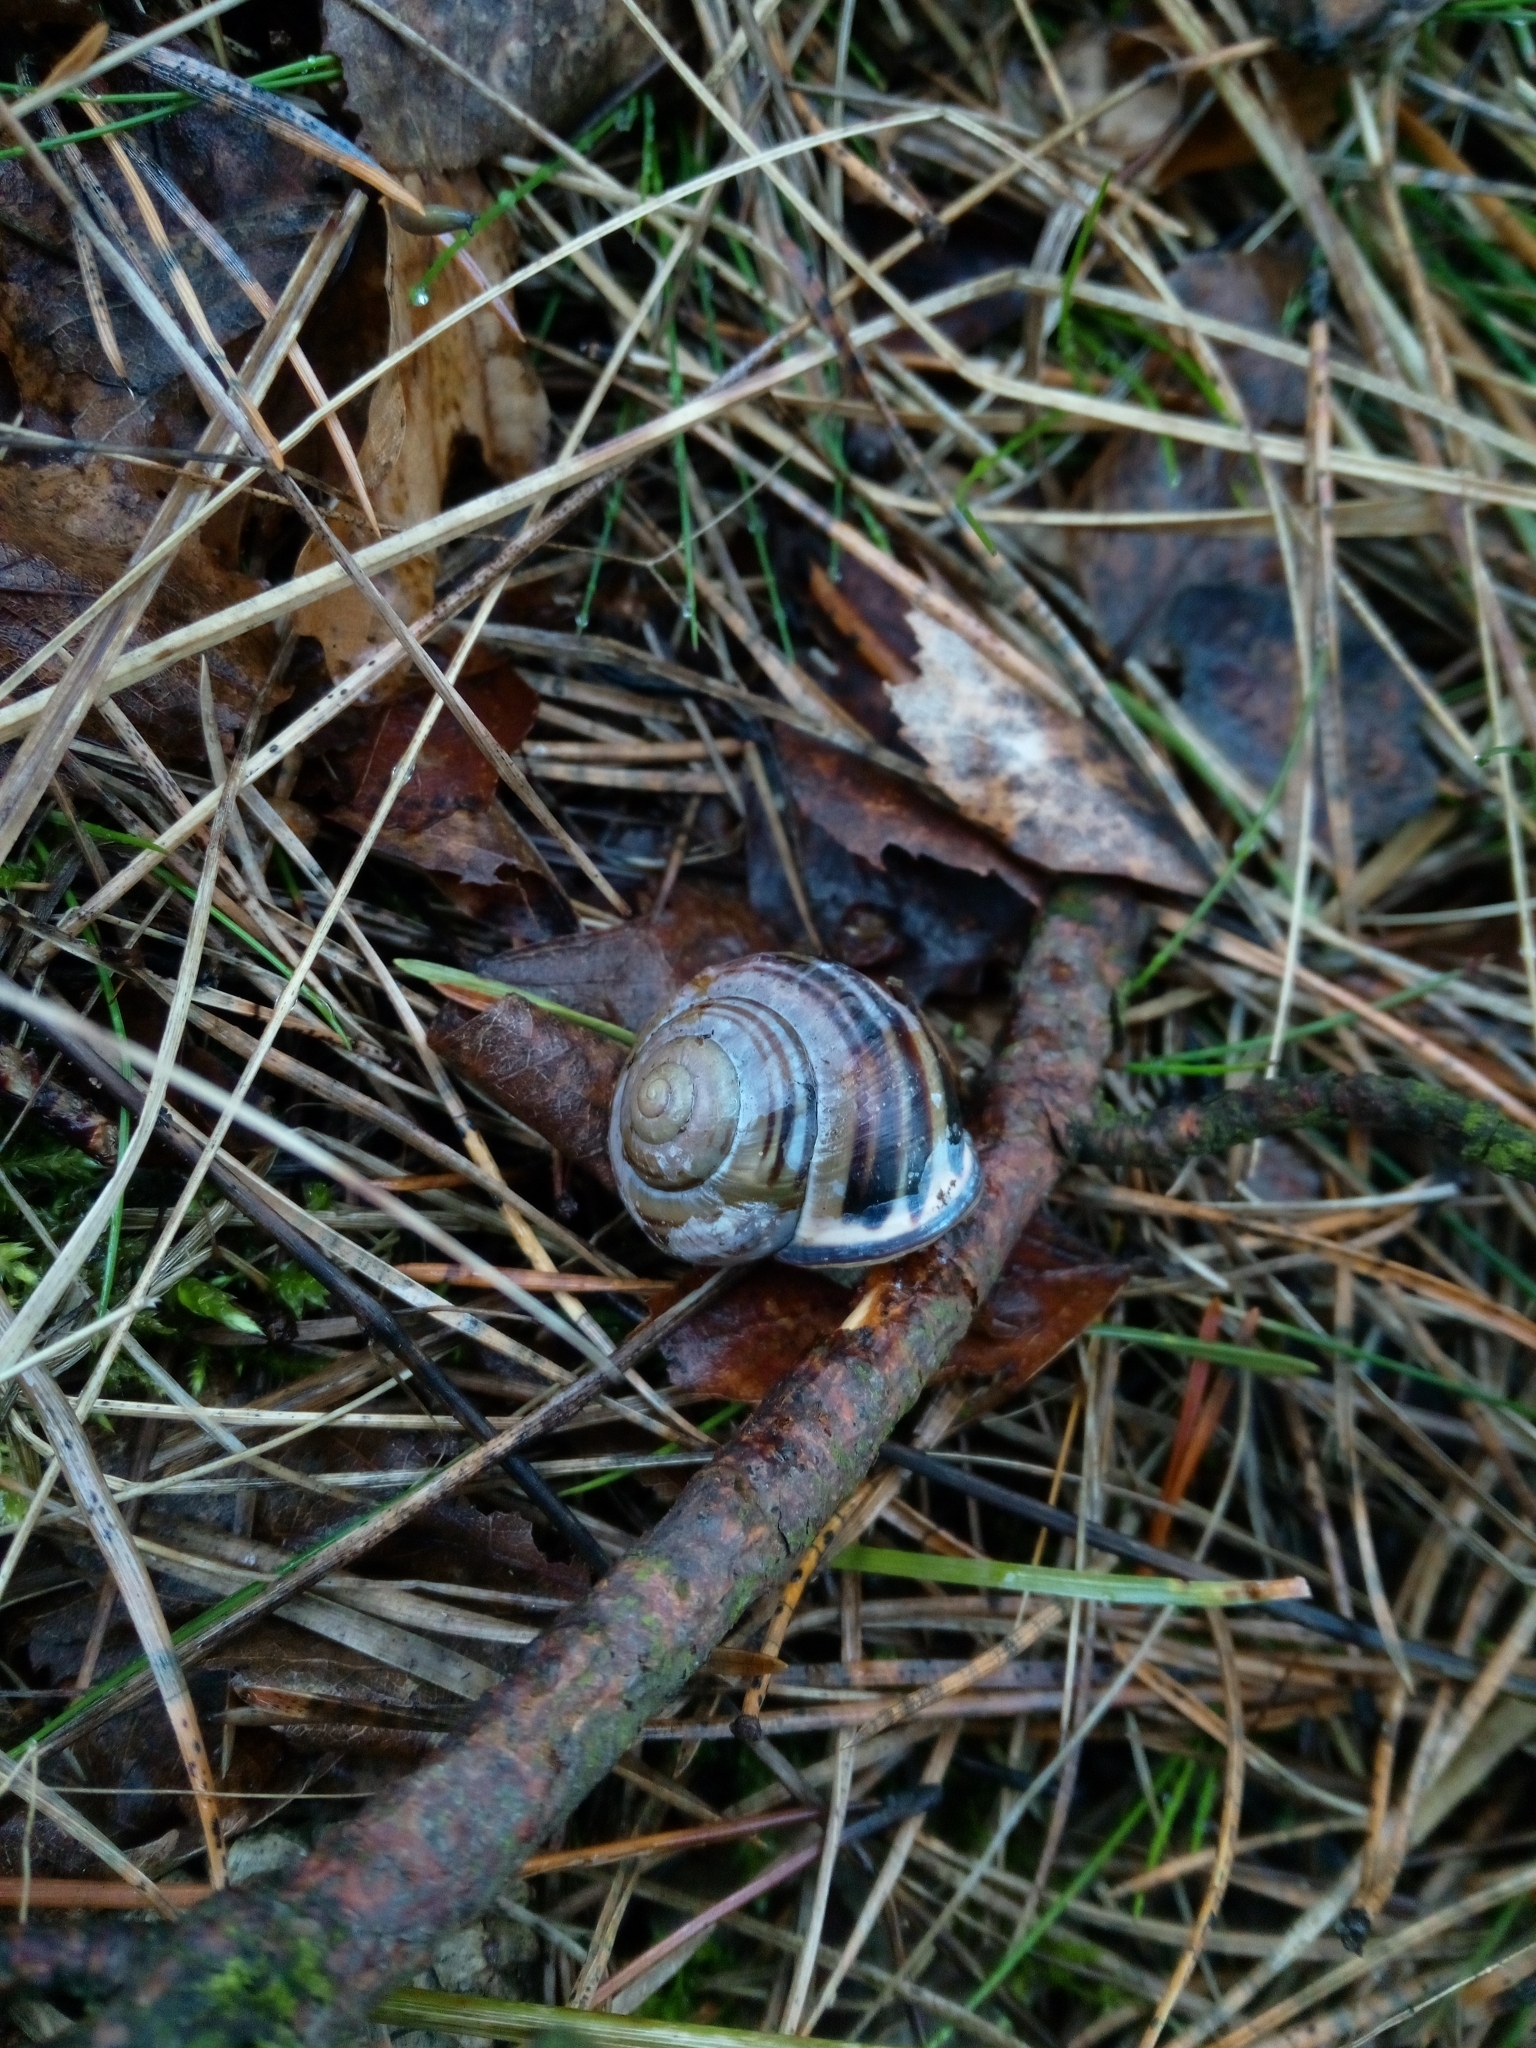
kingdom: Animalia
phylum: Mollusca
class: Gastropoda
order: Stylommatophora
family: Helicidae
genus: Cepaea
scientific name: Cepaea nemoralis
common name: Grovesnail
